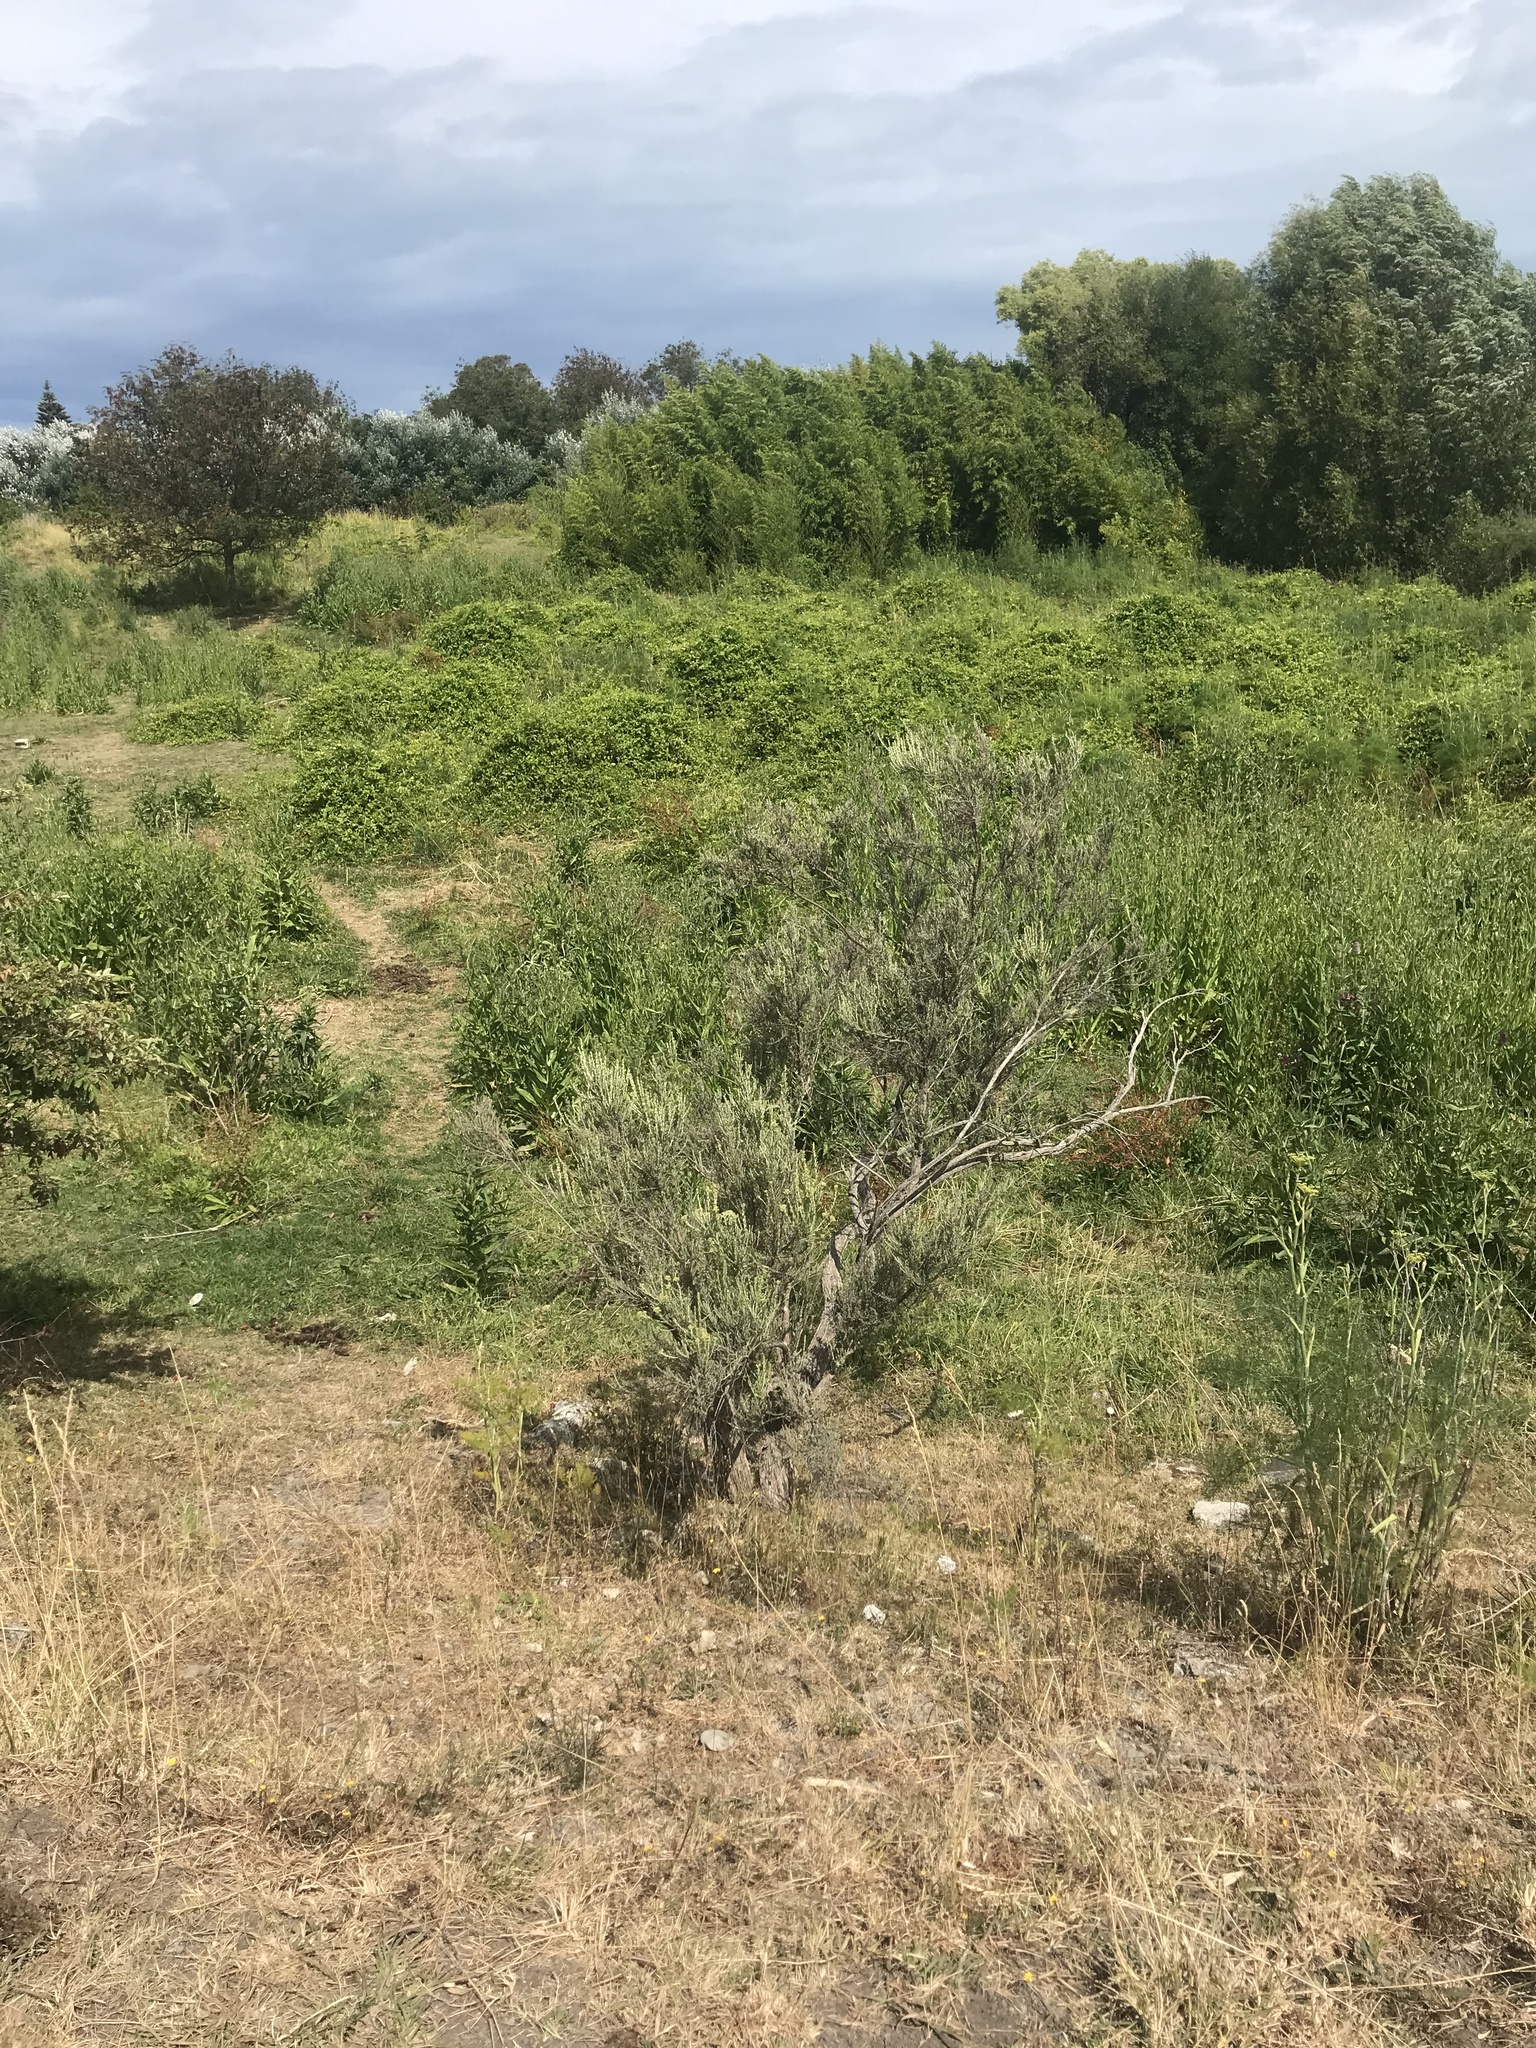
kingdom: Plantae
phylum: Tracheophyta
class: Magnoliopsida
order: Asterales
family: Asteraceae
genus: Ozothamnus
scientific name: Ozothamnus leptophyllus
